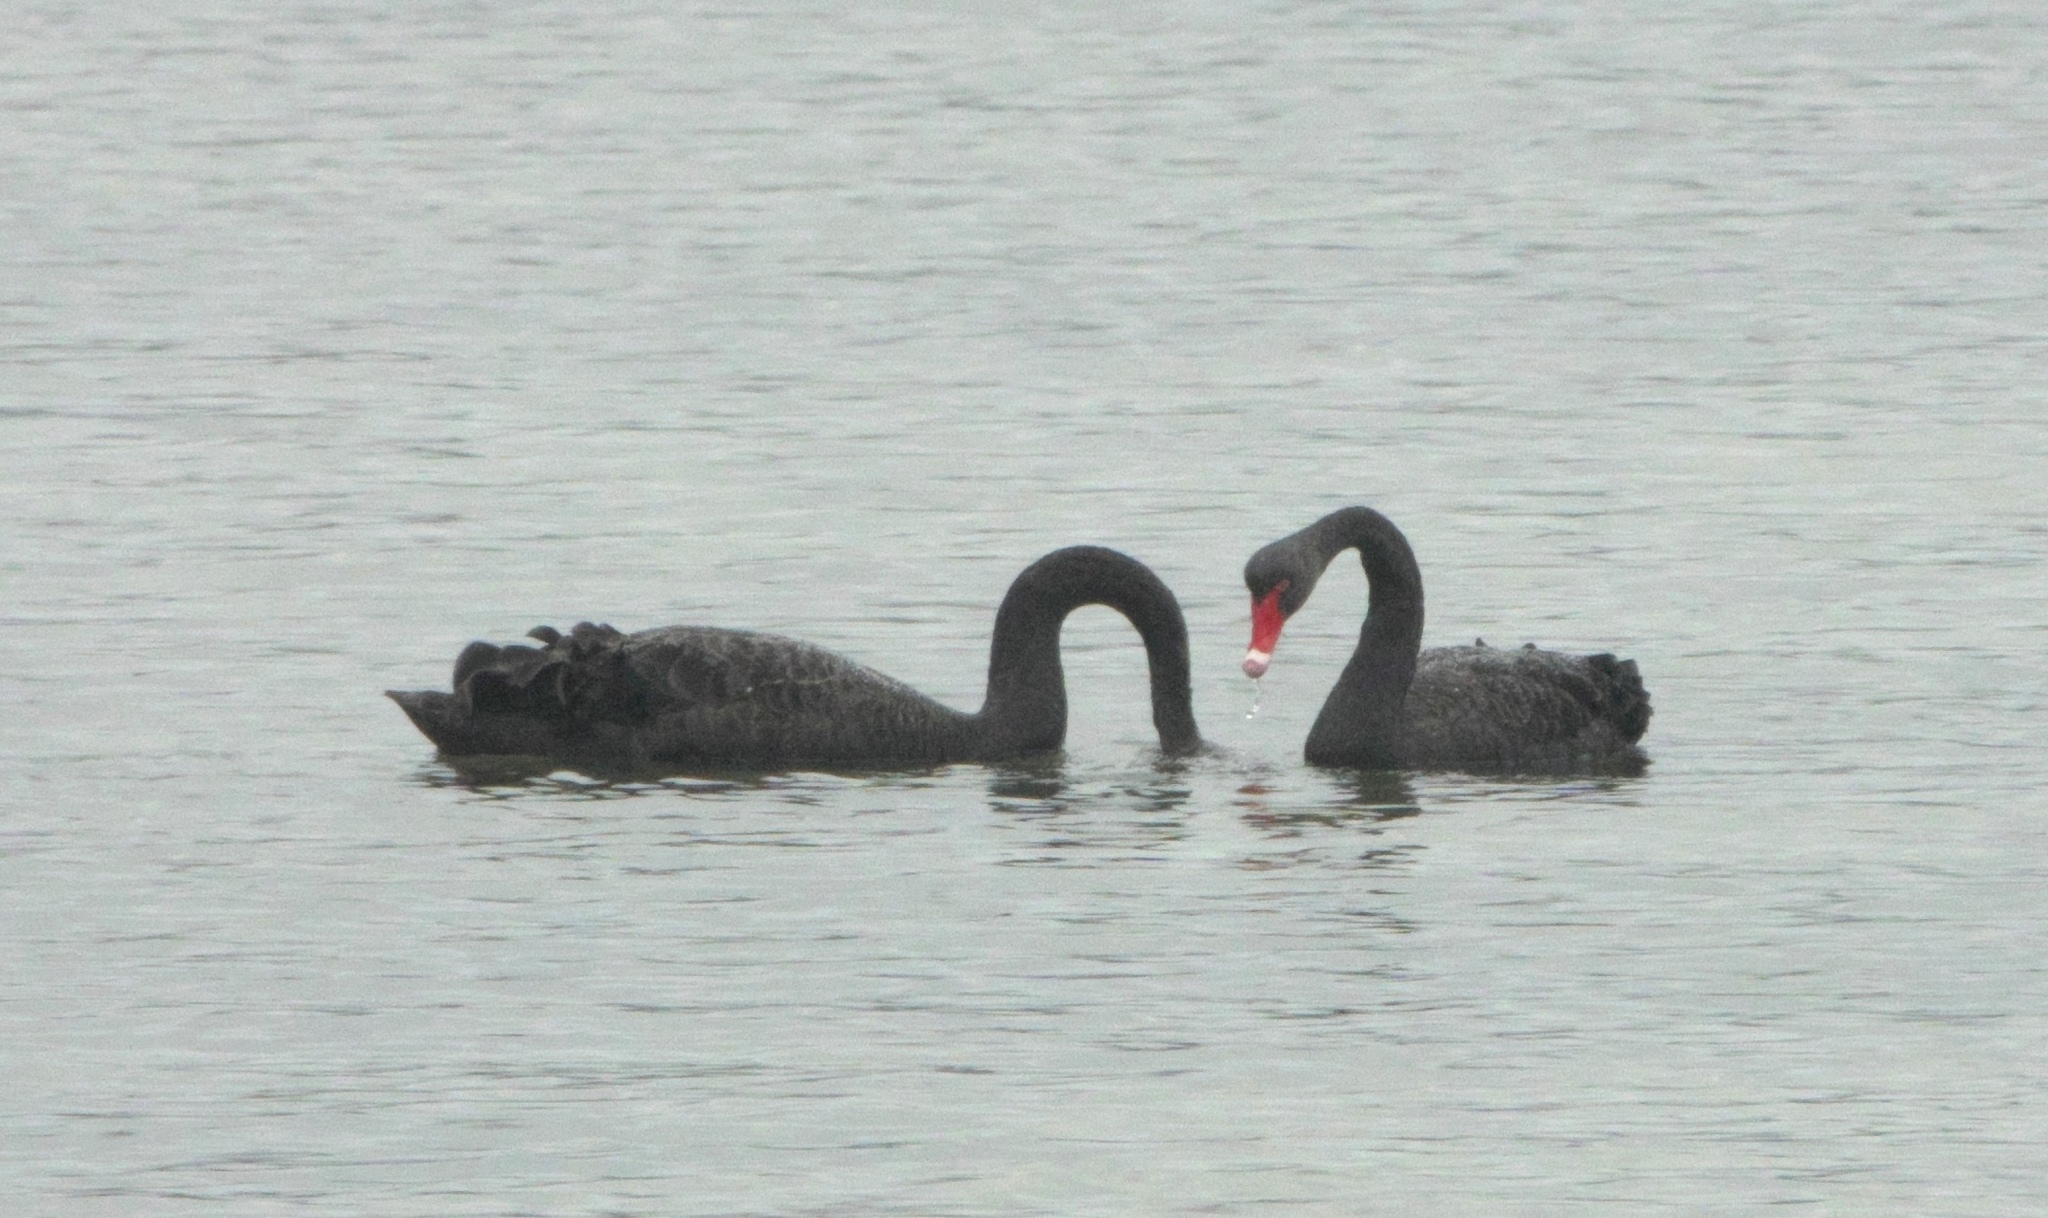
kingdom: Animalia
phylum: Chordata
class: Aves
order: Anseriformes
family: Anatidae
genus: Cygnus
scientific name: Cygnus atratus
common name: Black swan
